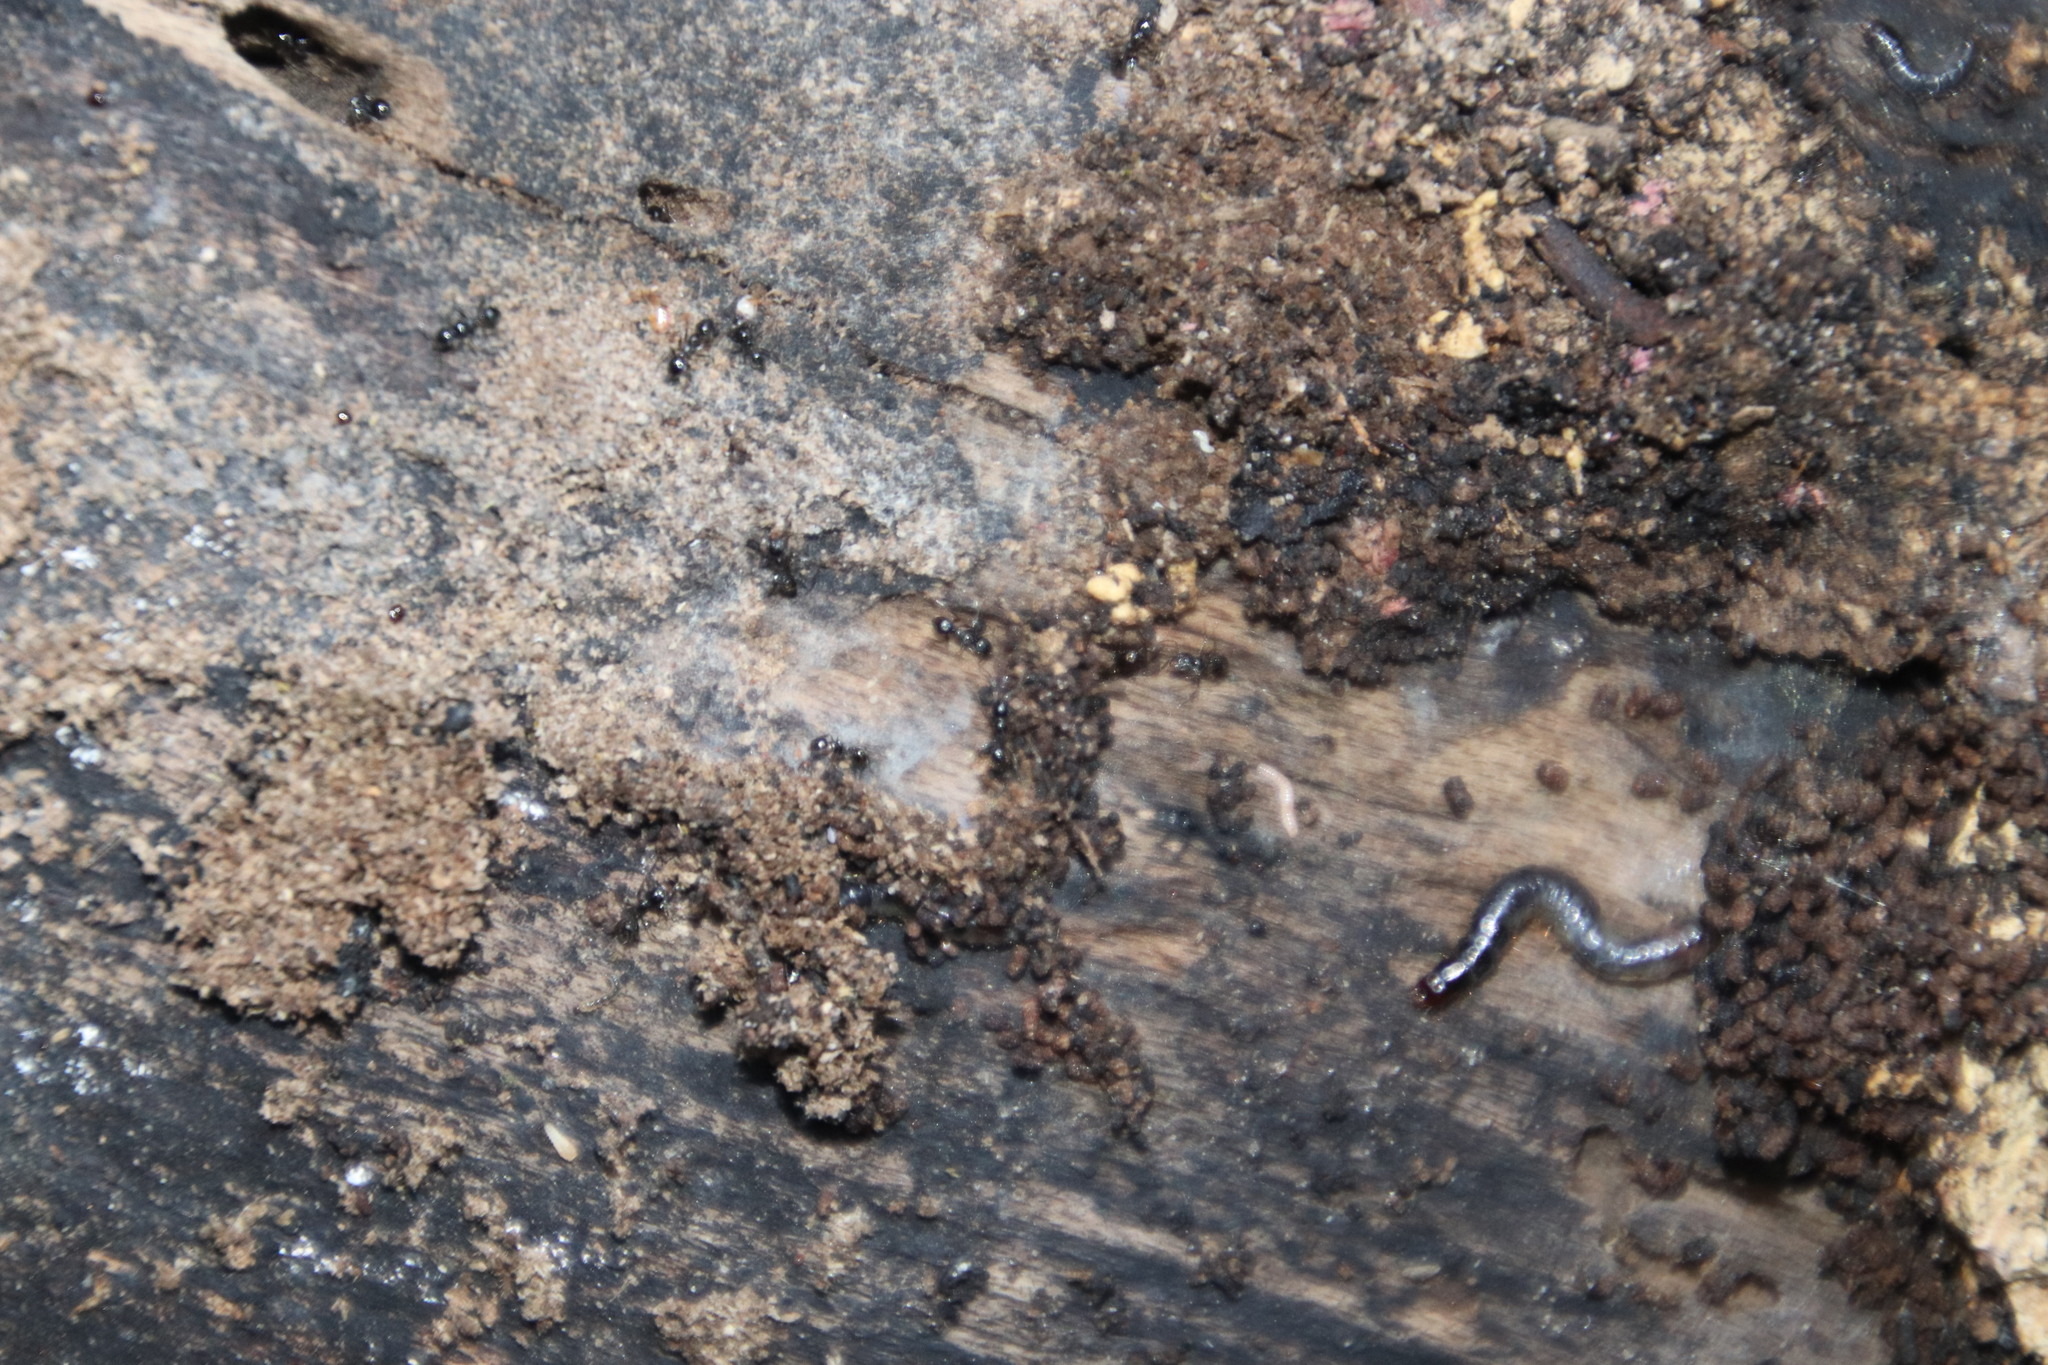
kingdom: Animalia
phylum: Arthropoda
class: Insecta
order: Hymenoptera
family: Formicidae
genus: Tetramorium
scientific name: Tetramorium grassii
